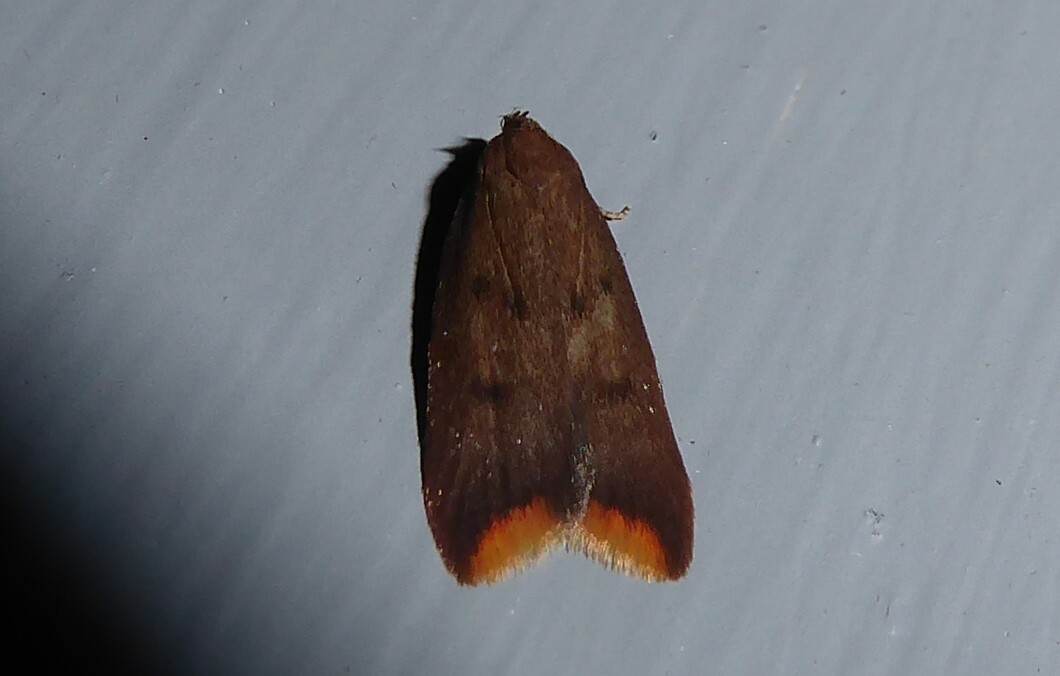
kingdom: Animalia
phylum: Arthropoda
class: Insecta
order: Lepidoptera
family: Oecophoridae
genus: Tachystola
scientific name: Tachystola acroxantha
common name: Ruddy streak
